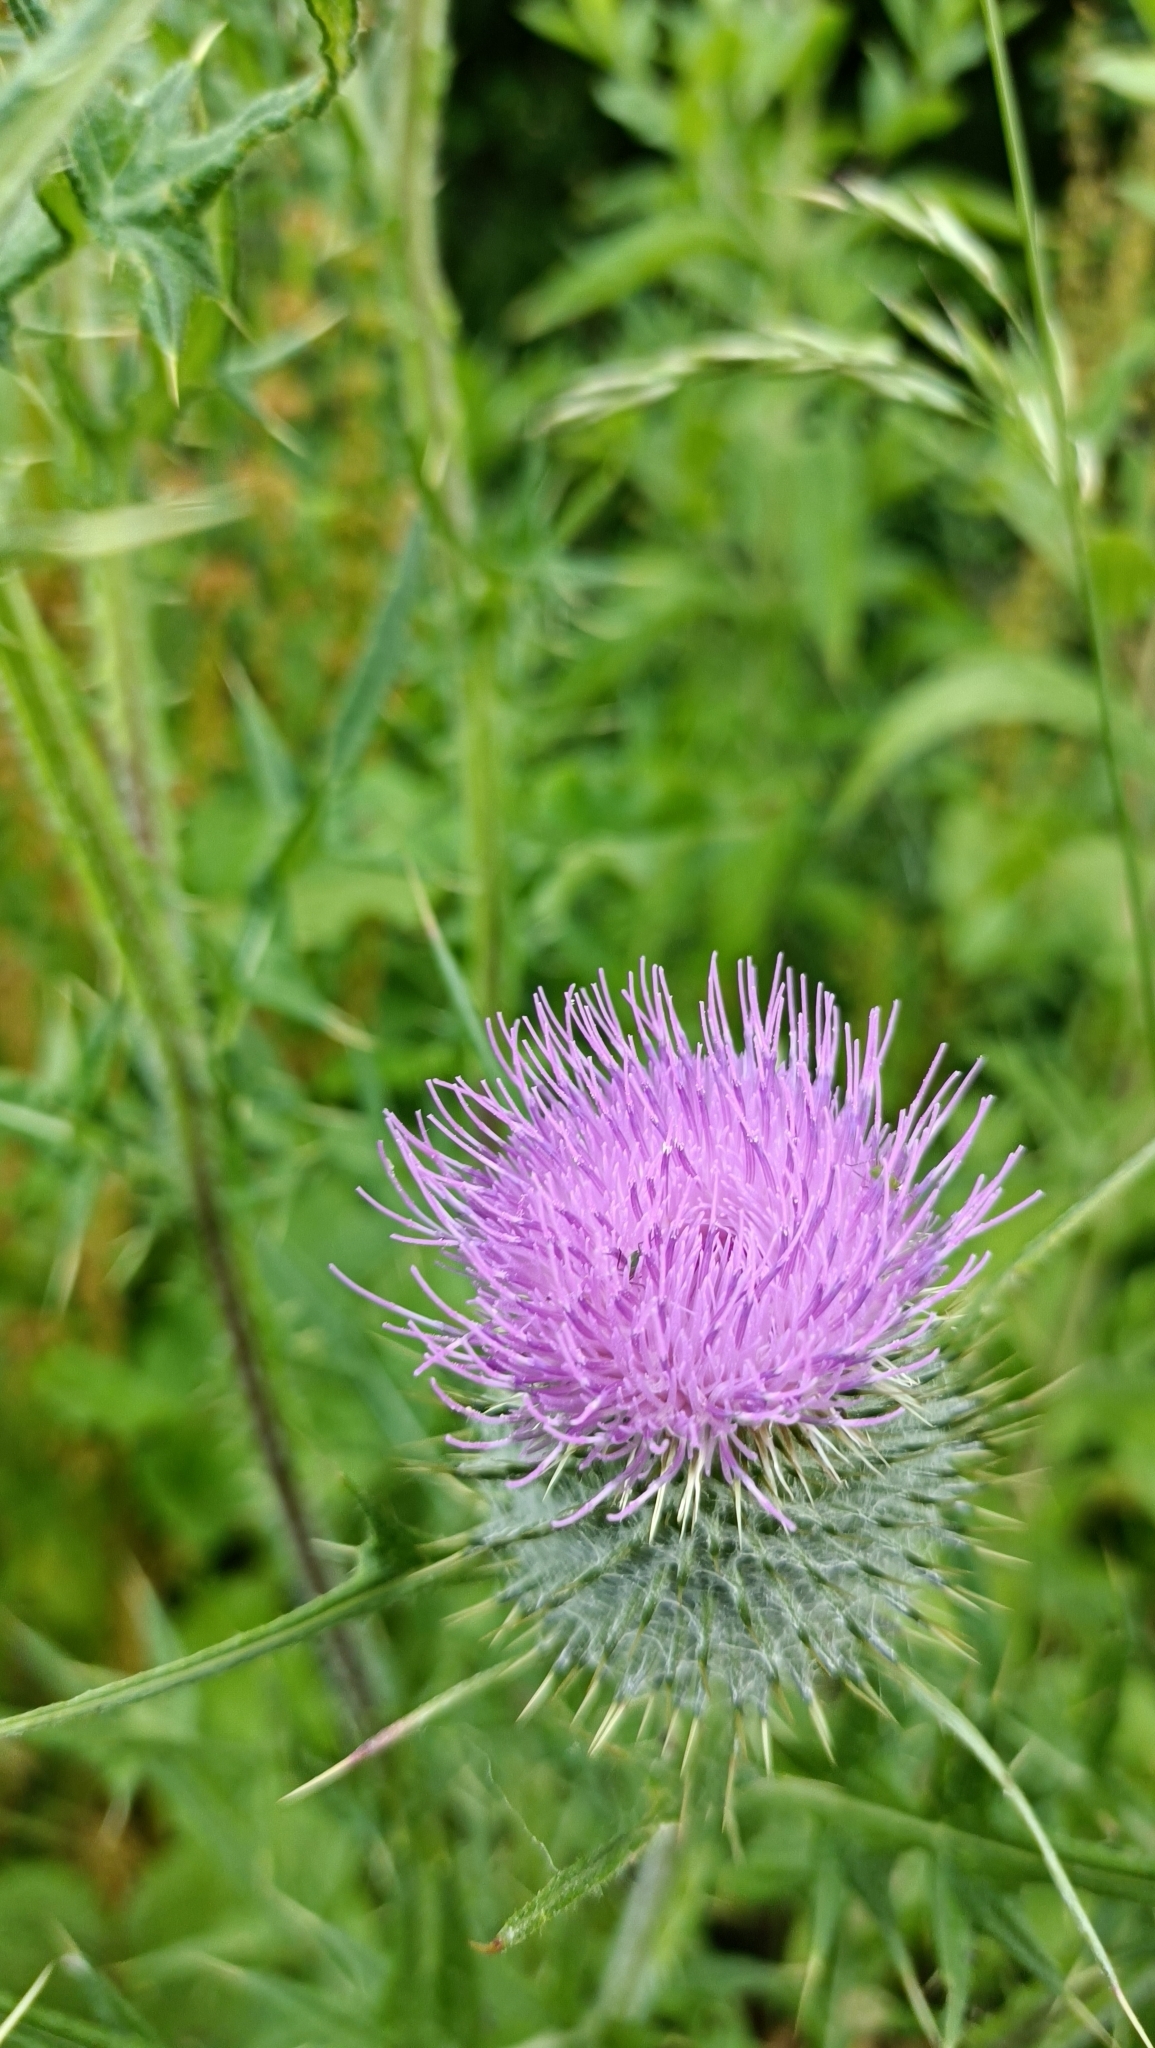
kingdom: Plantae
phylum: Tracheophyta
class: Magnoliopsida
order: Asterales
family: Asteraceae
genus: Cirsium
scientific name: Cirsium vulgare
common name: Bull thistle
